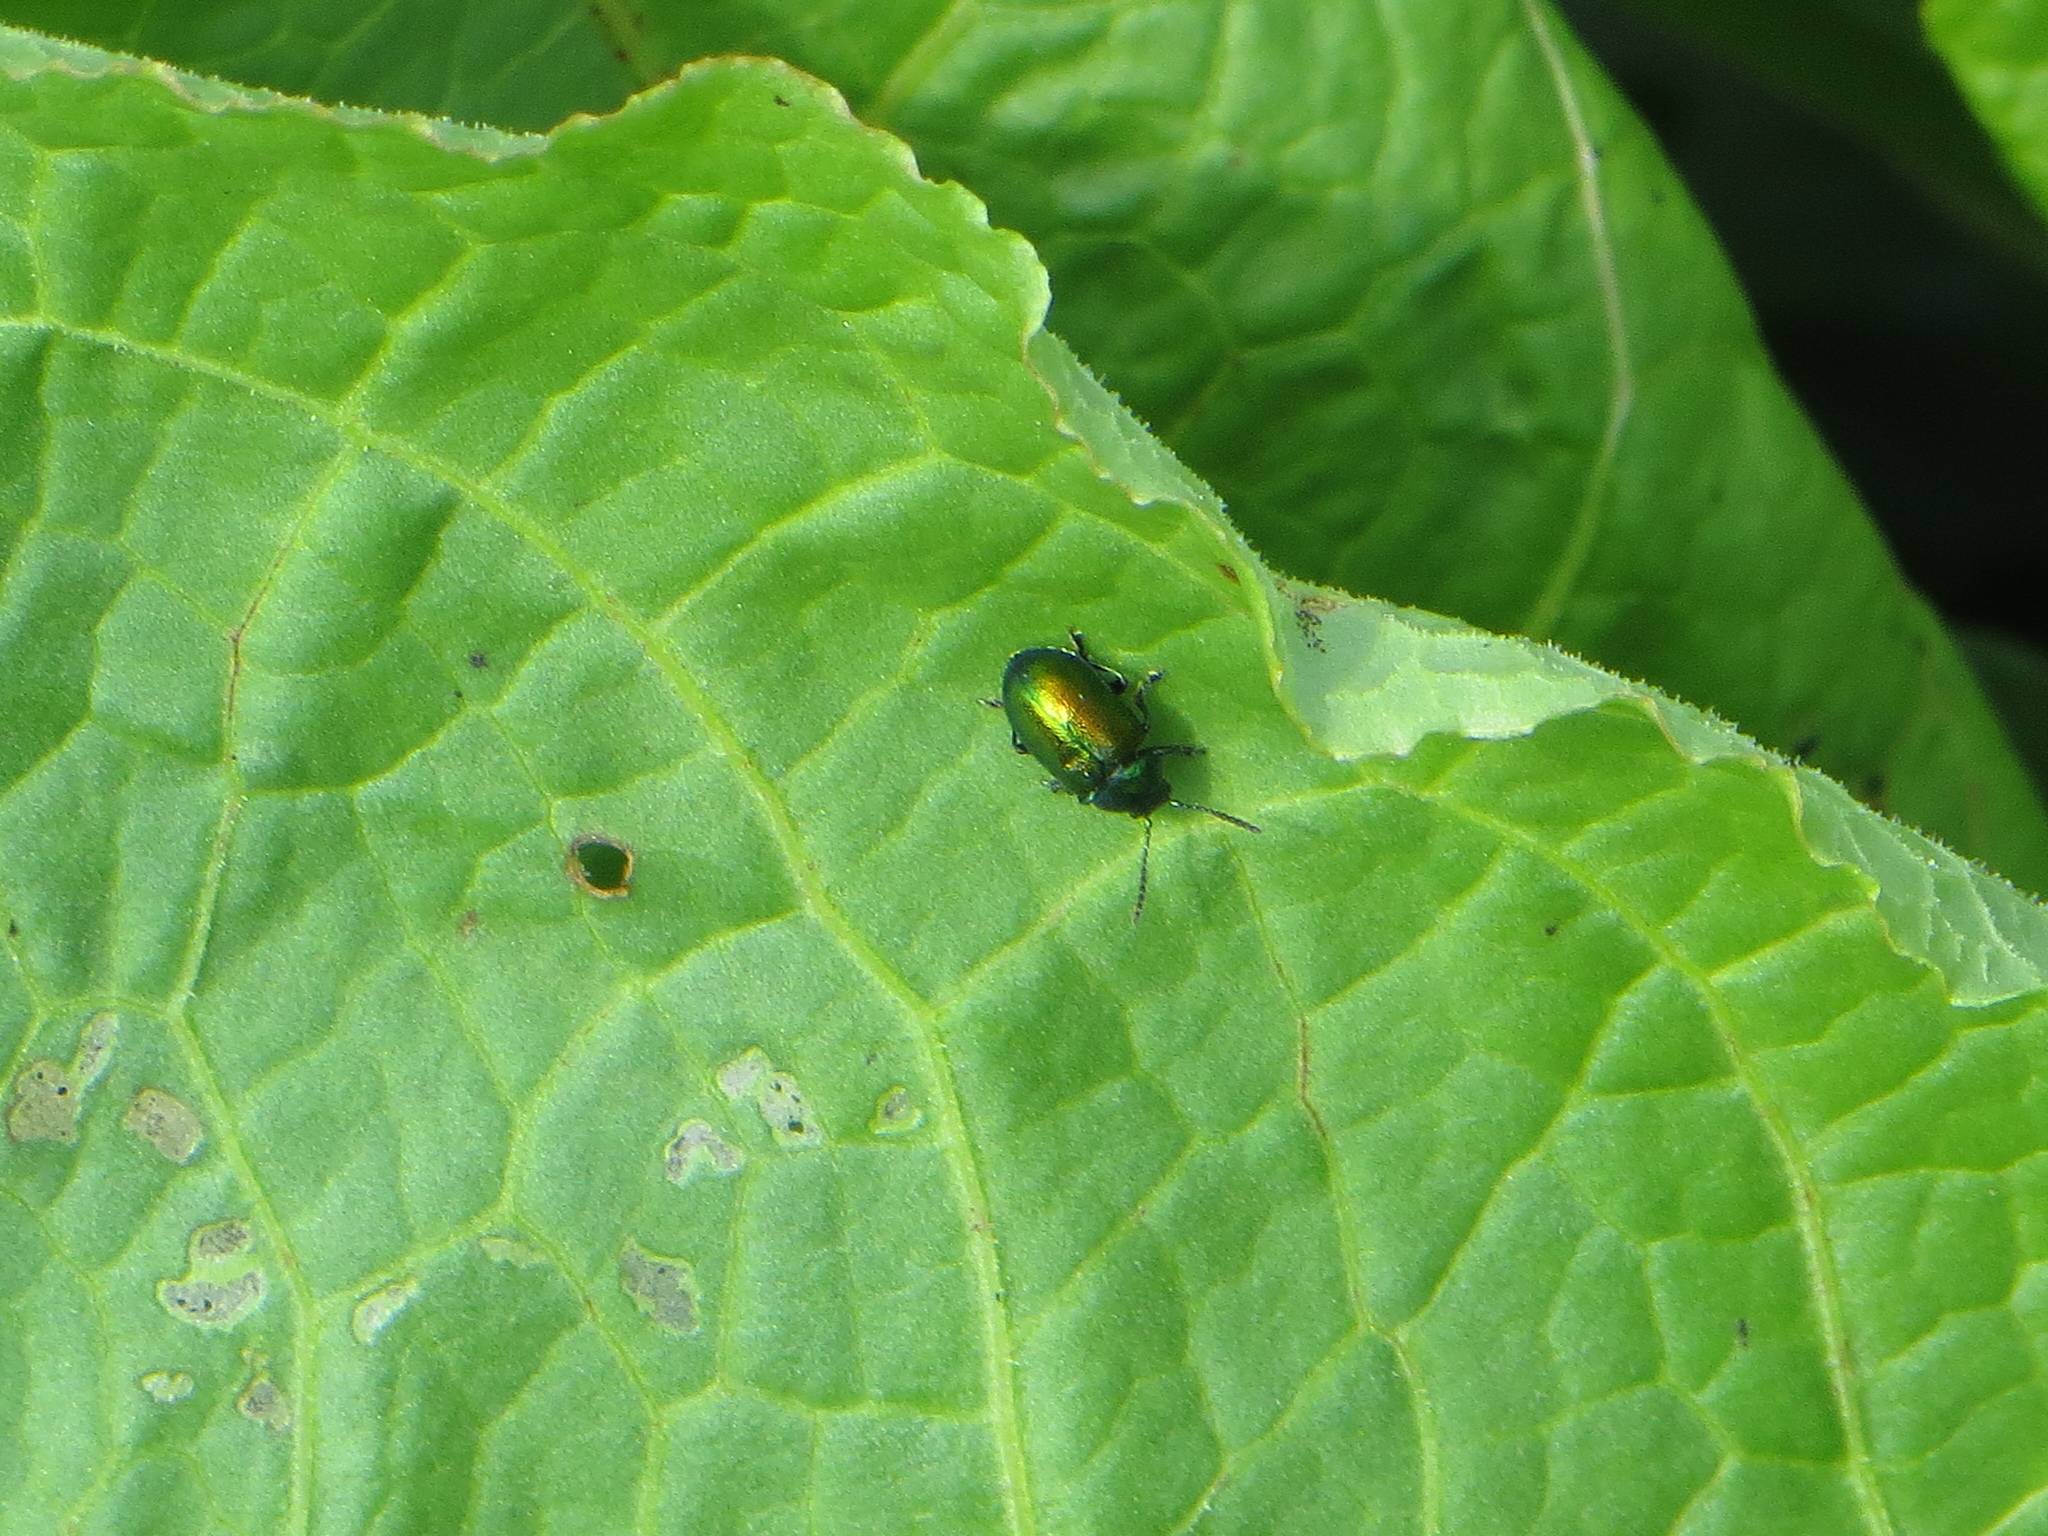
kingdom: Animalia
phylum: Arthropoda
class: Insecta
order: Coleoptera
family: Chrysomelidae
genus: Gastrophysa
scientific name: Gastrophysa viridula
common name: Green dock beetle
